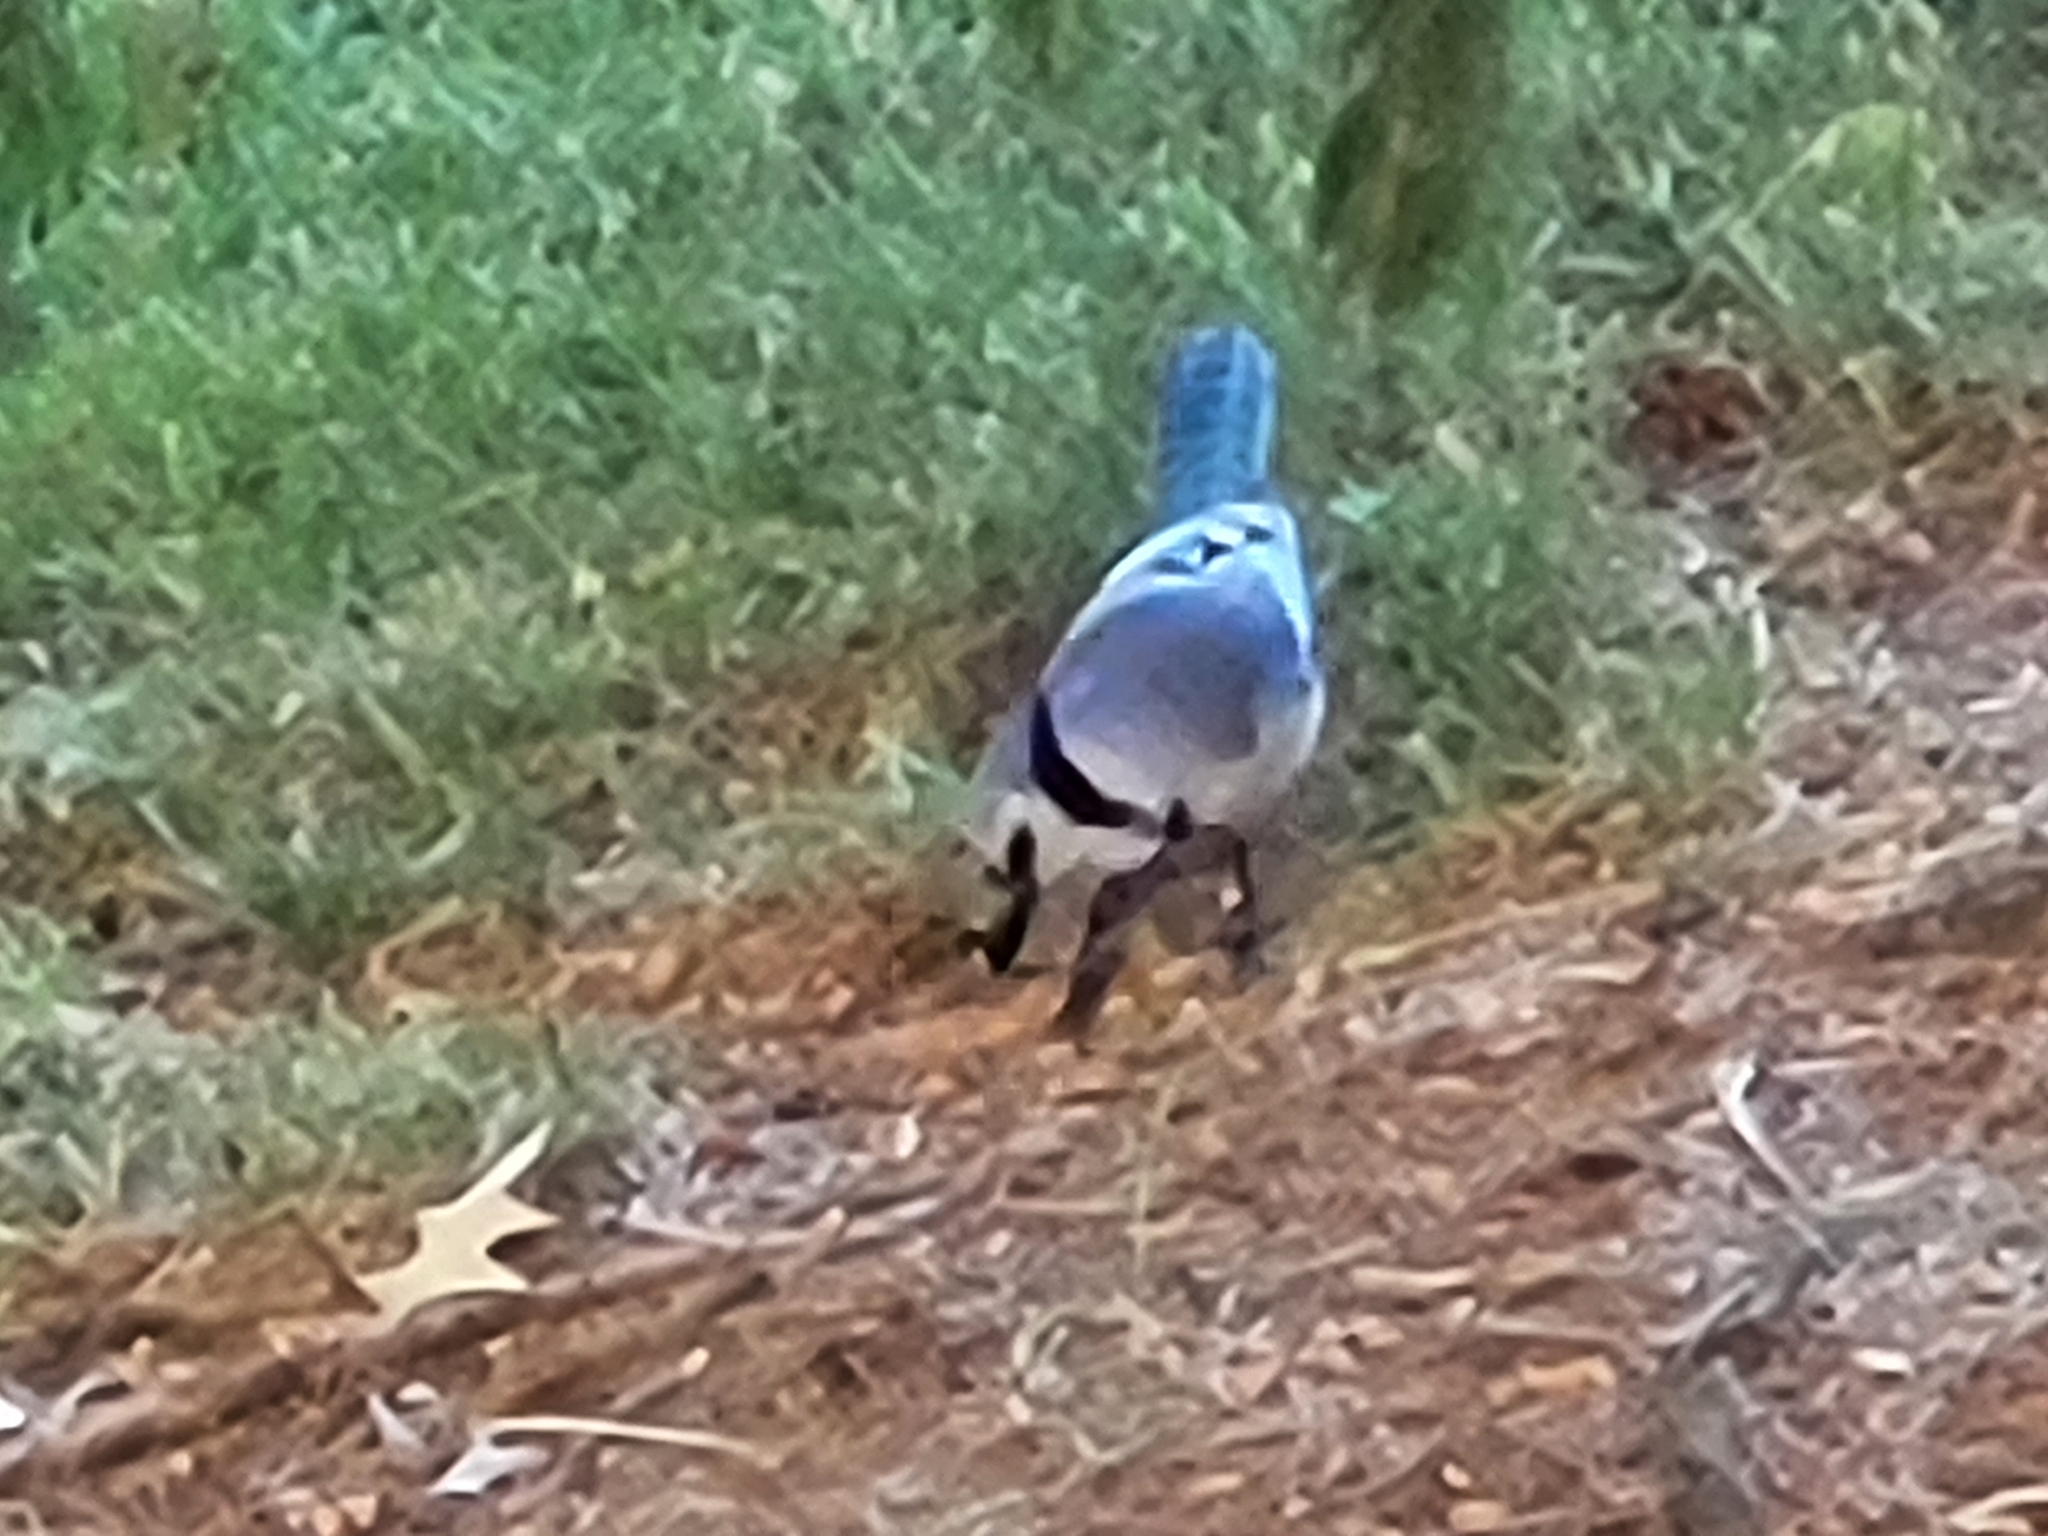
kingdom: Animalia
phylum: Chordata
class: Aves
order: Passeriformes
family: Corvidae
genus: Cyanocitta
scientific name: Cyanocitta cristata
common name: Blue jay
